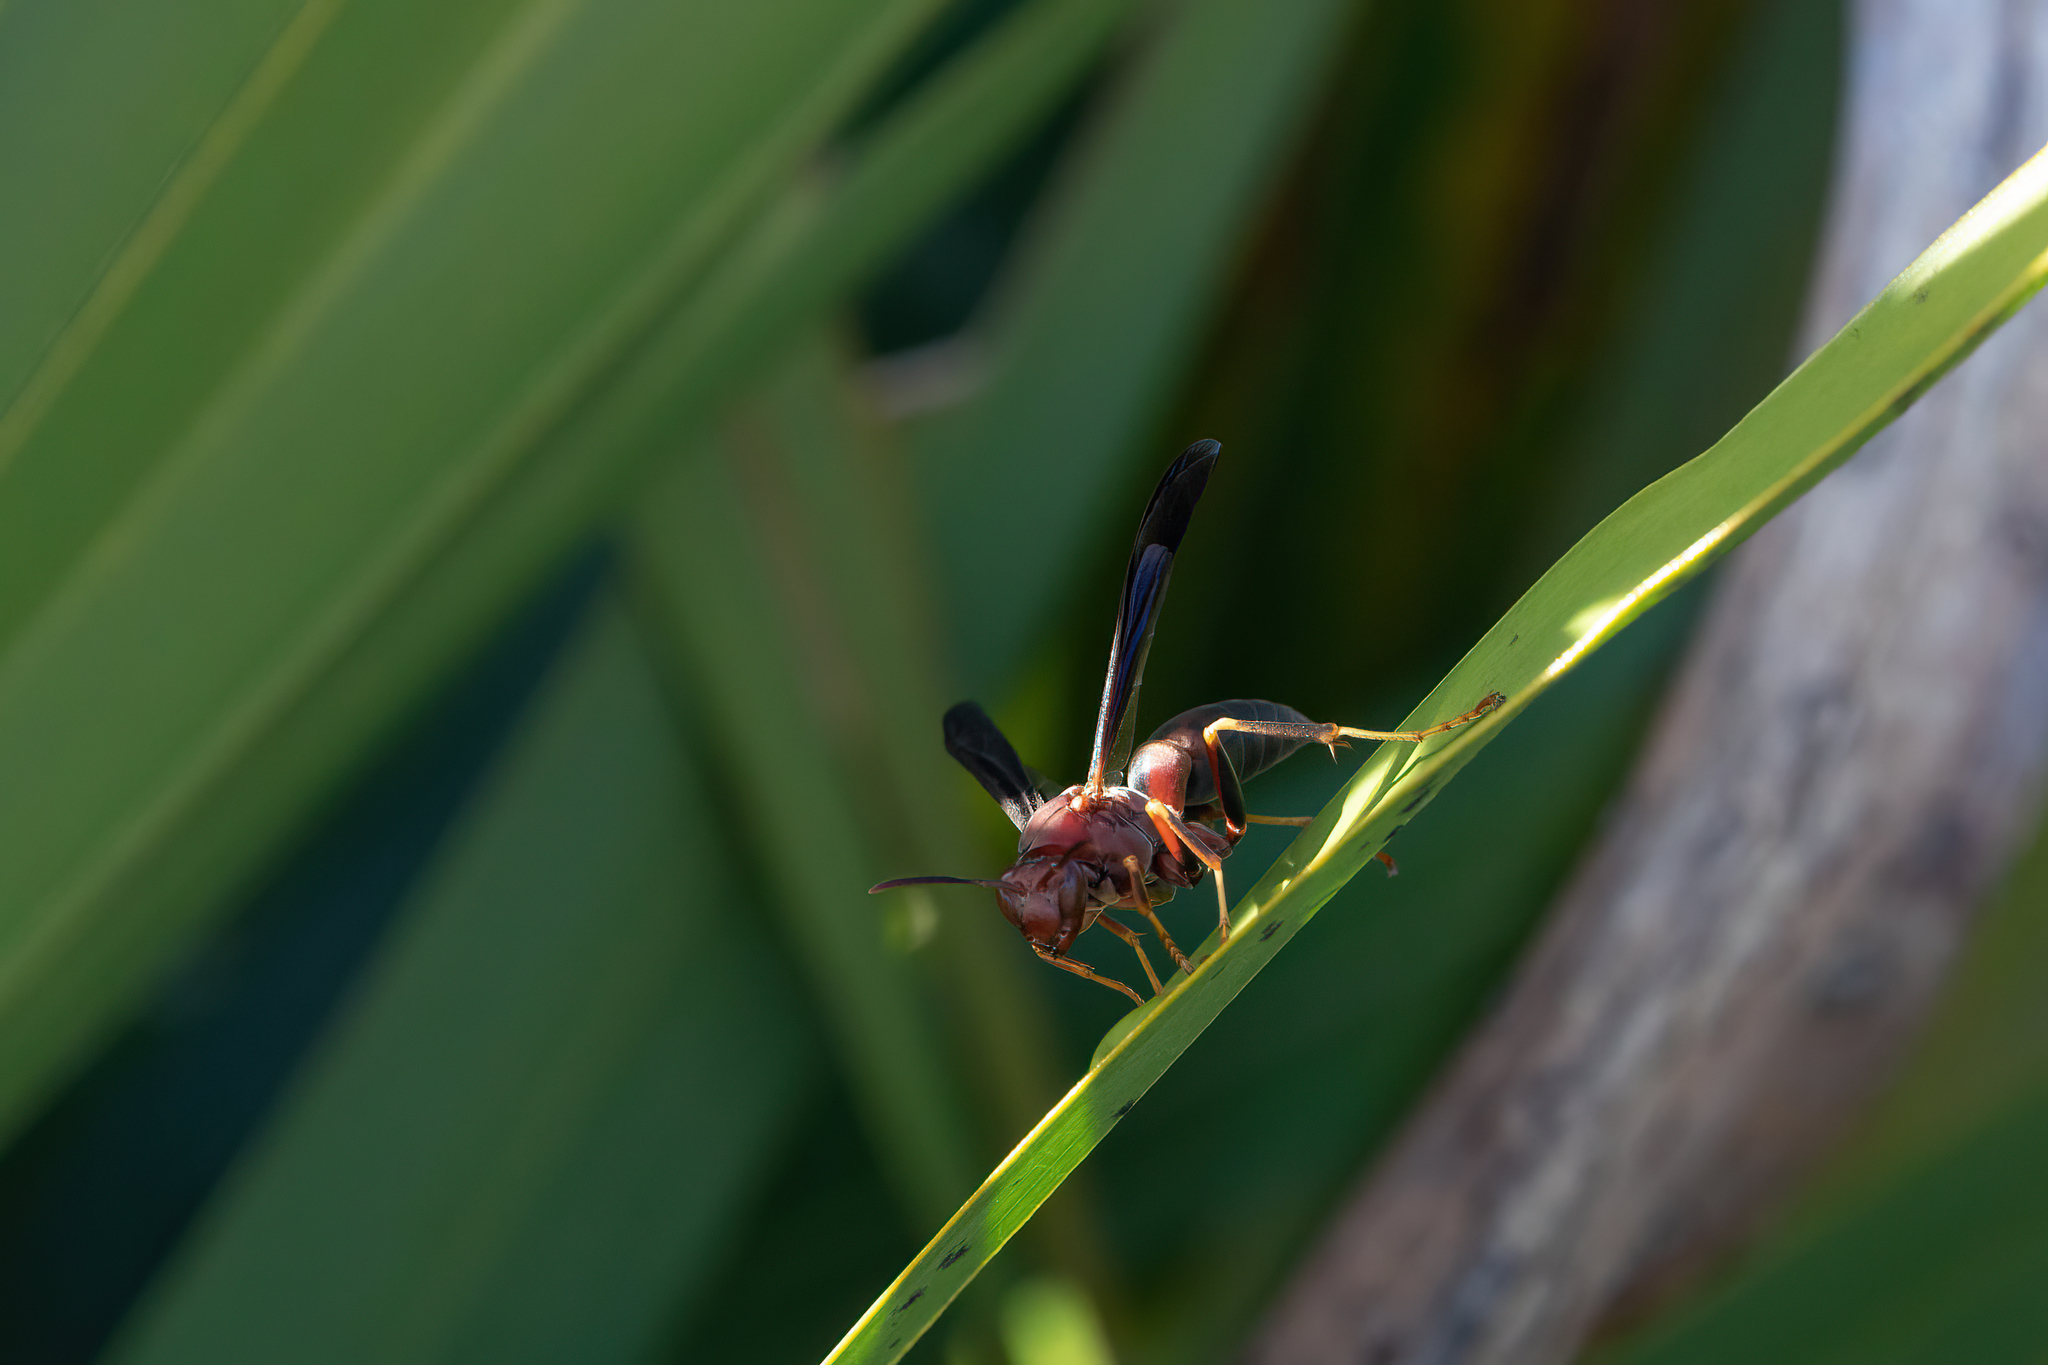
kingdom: Animalia
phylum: Arthropoda
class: Insecta
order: Hymenoptera
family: Eumenidae
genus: Polistes
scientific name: Polistes metricus
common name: Metric paper wasp
